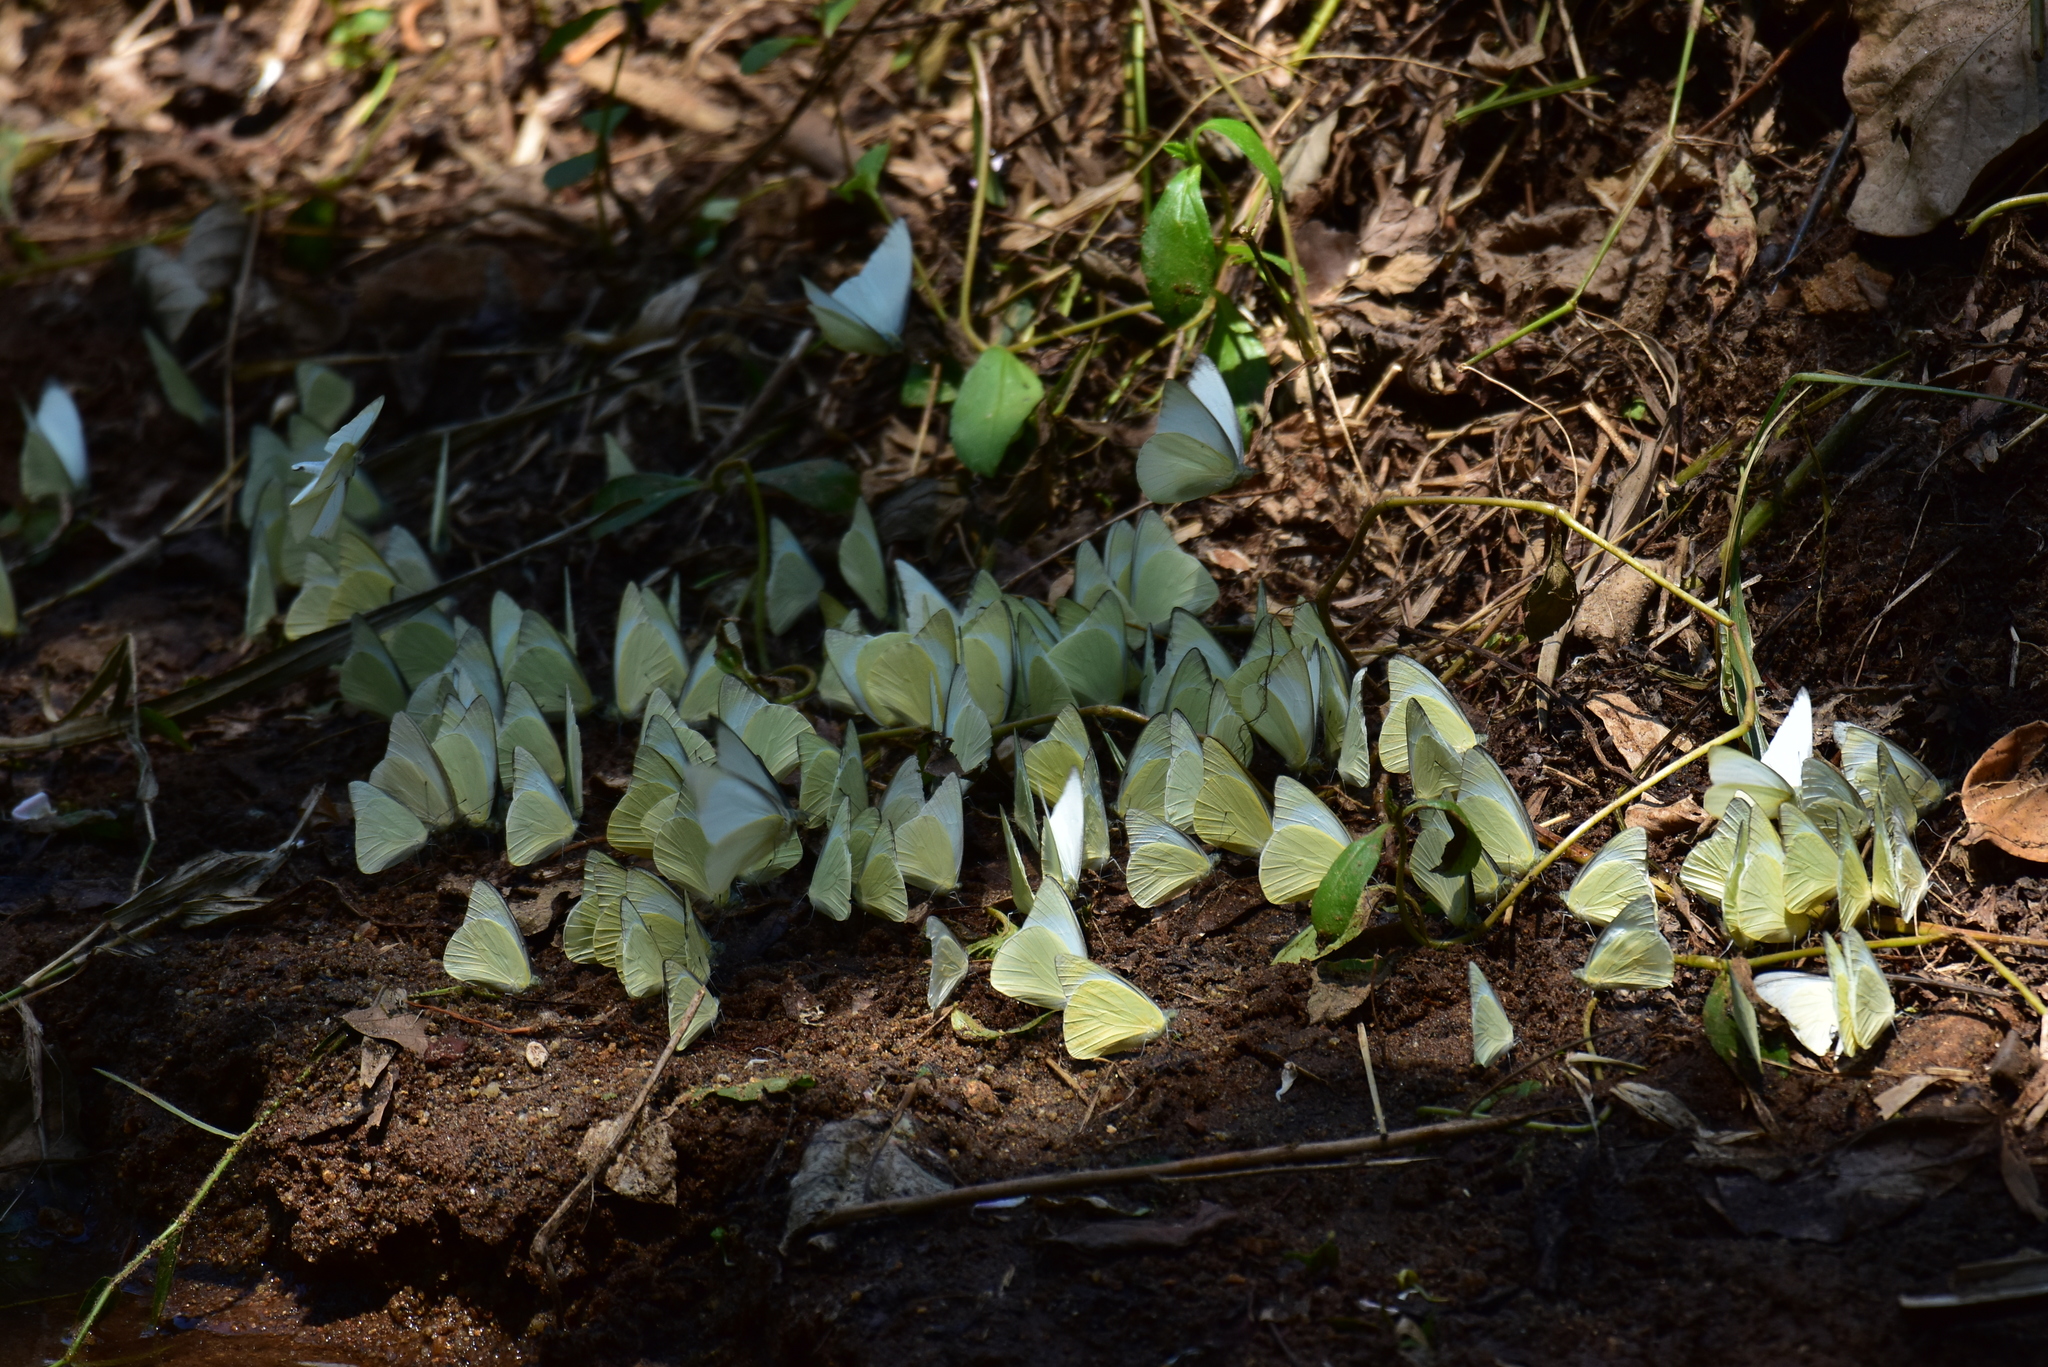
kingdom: Animalia
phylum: Arthropoda
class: Insecta
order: Lepidoptera
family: Pieridae
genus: Appias
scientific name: Appias albina
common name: Common albatross
